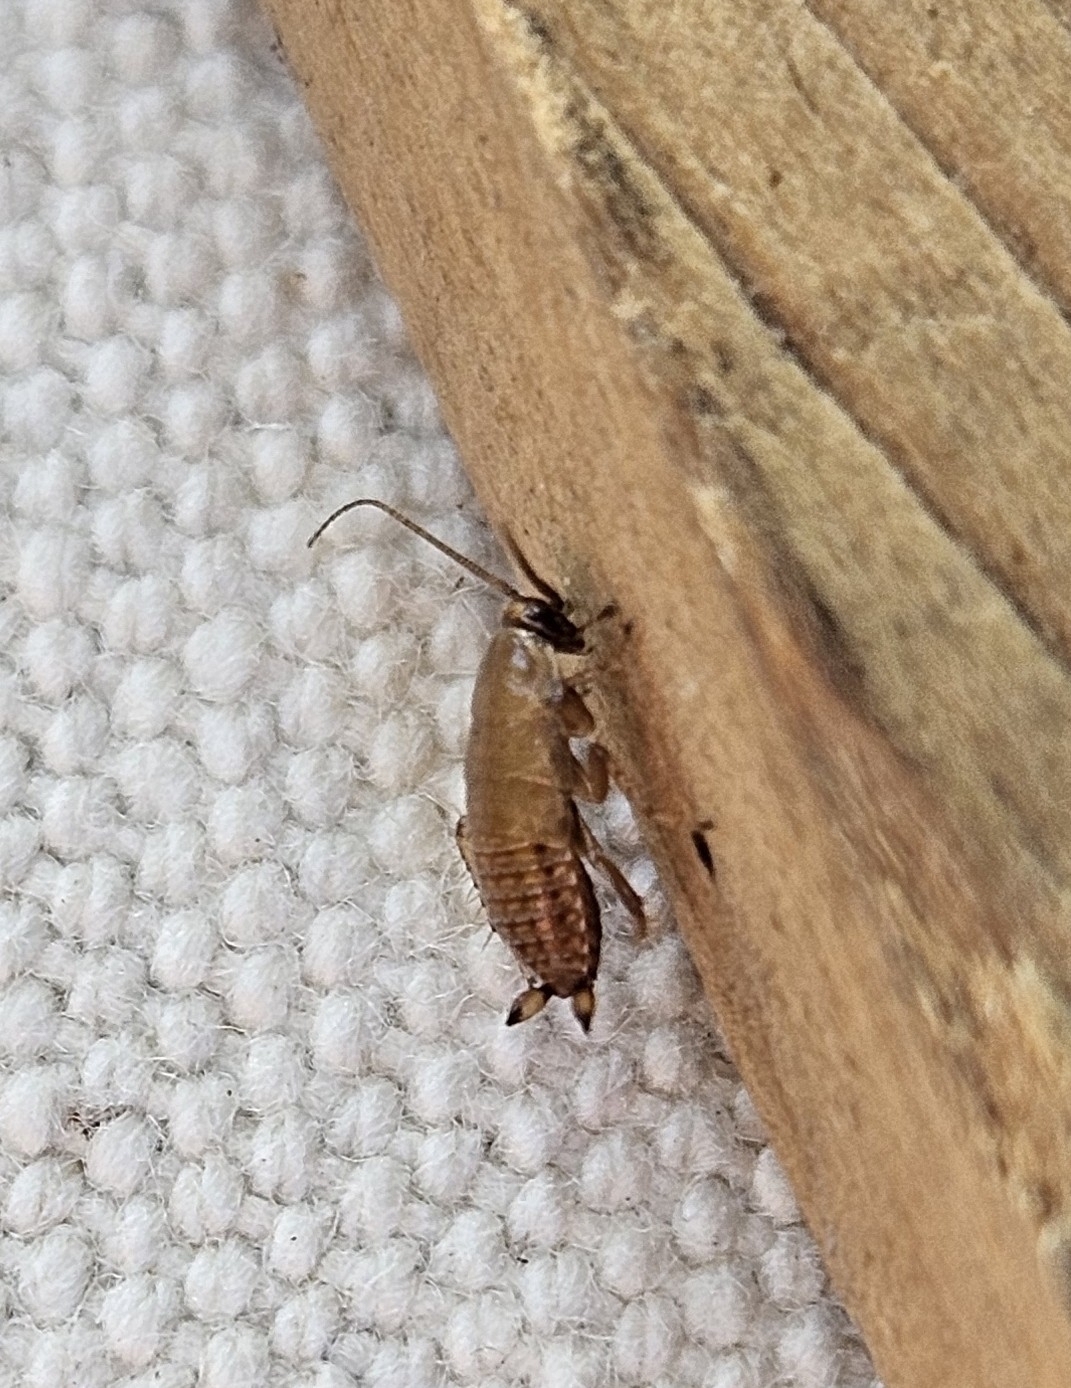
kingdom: Animalia
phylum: Arthropoda
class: Insecta
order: Blattodea
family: Ectobiidae
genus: Ectobius
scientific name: Ectobius lapponicus
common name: Dusky cockroach
